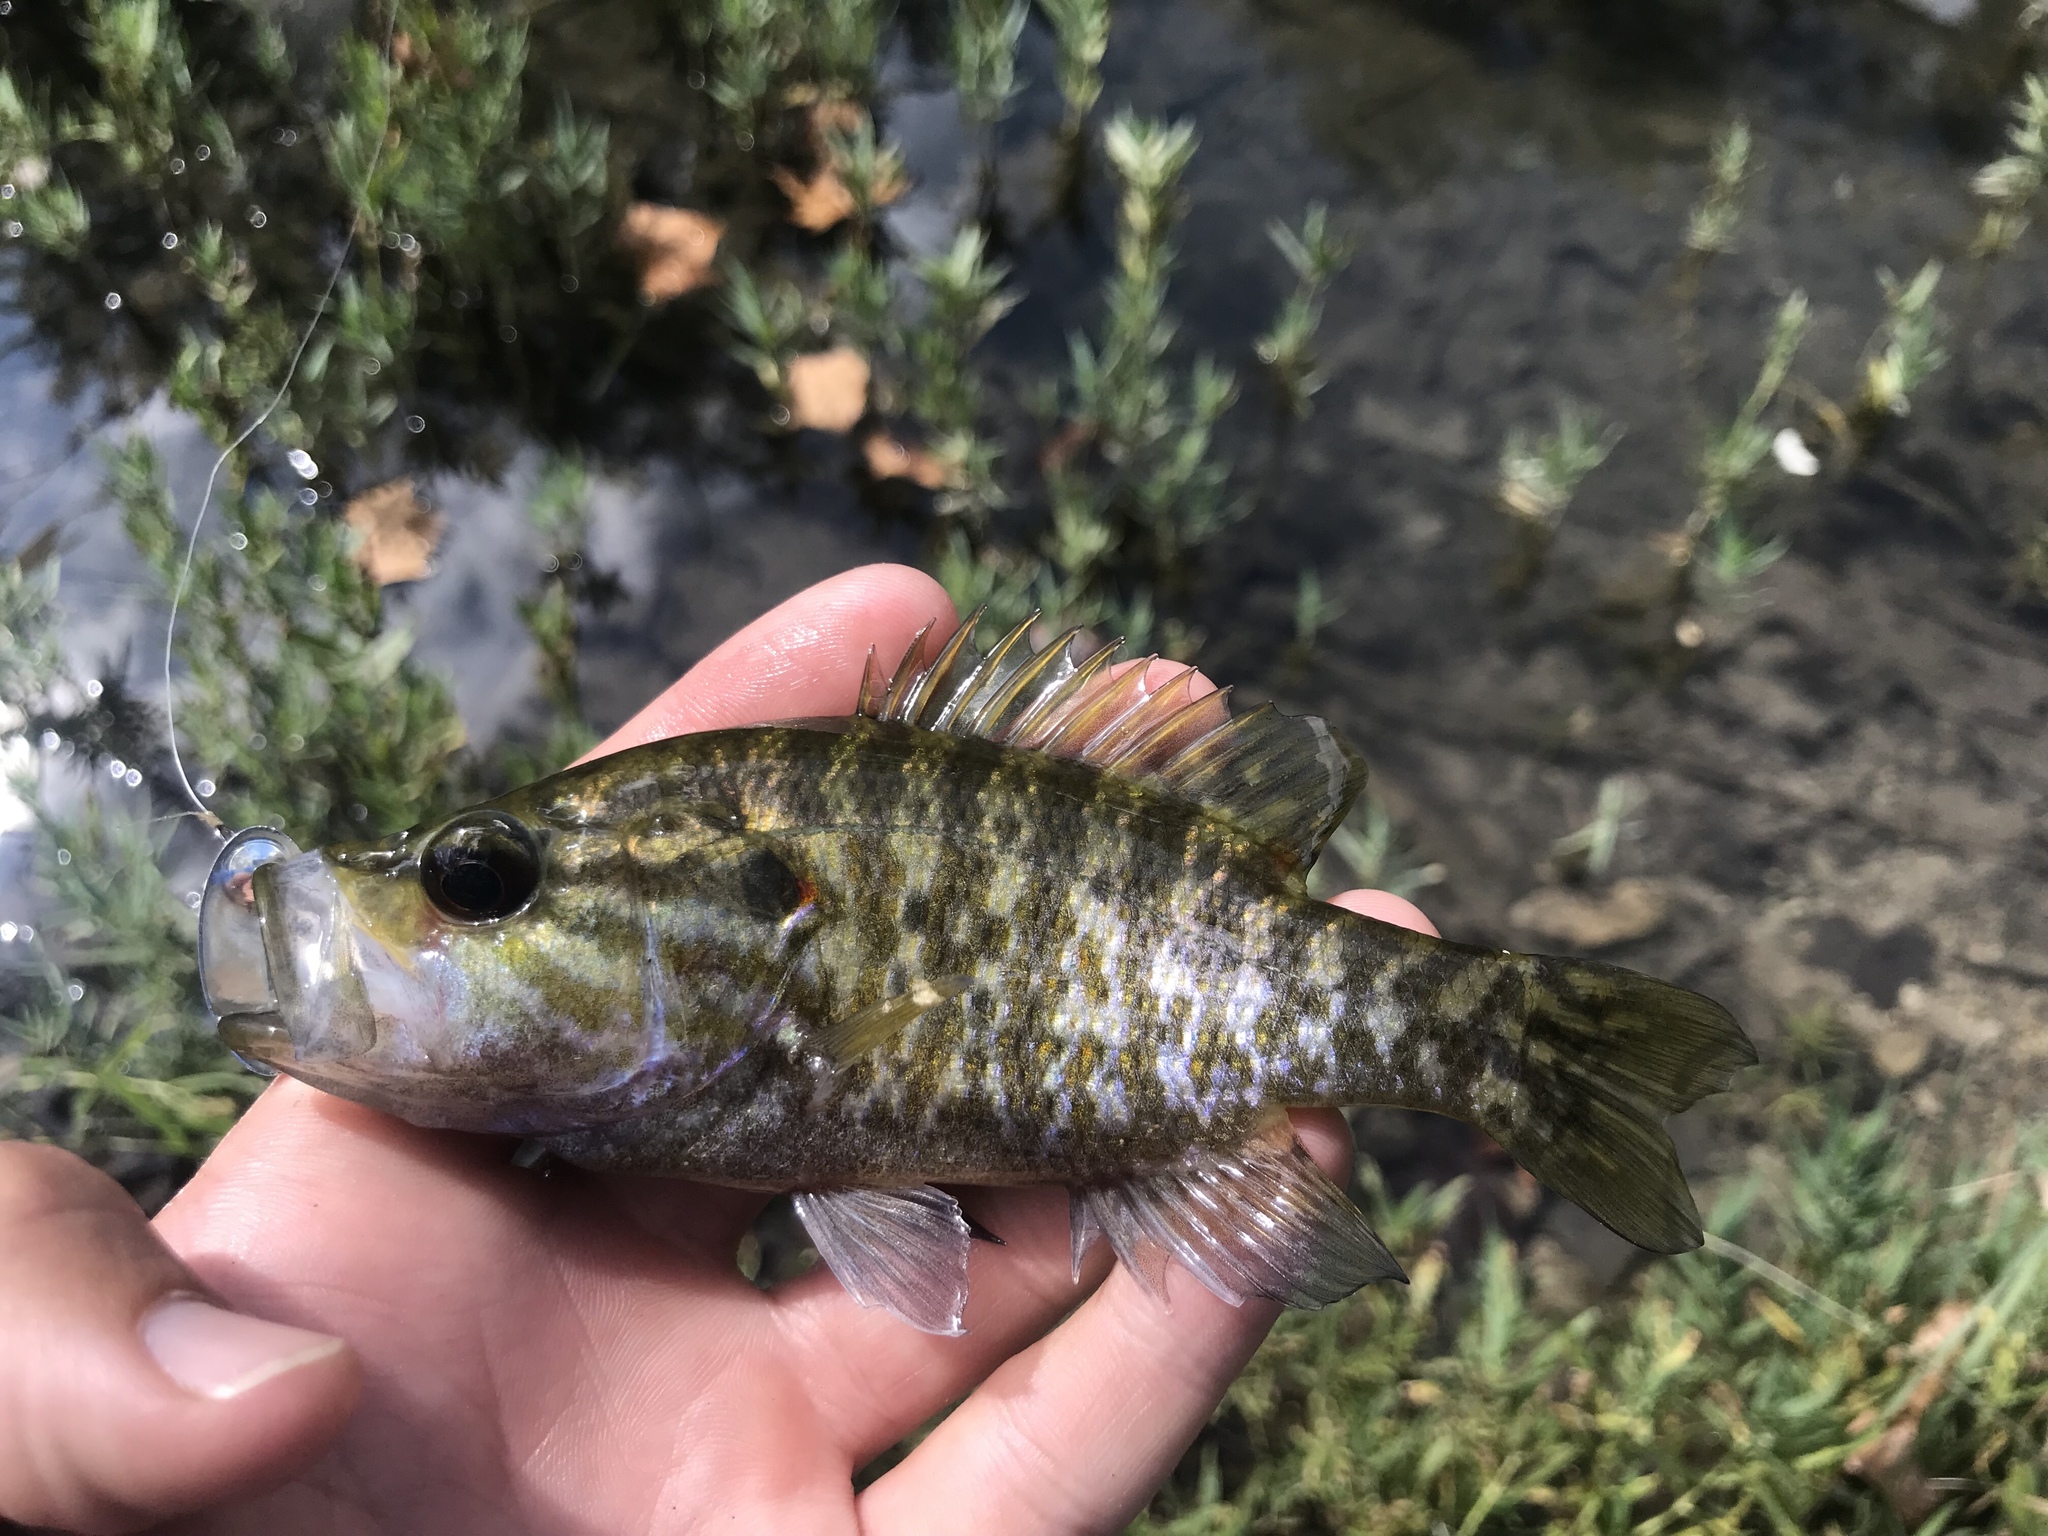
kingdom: Animalia
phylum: Chordata
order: Perciformes
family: Centrarchidae
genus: Lepomis
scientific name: Lepomis gulosus
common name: Warmouth
